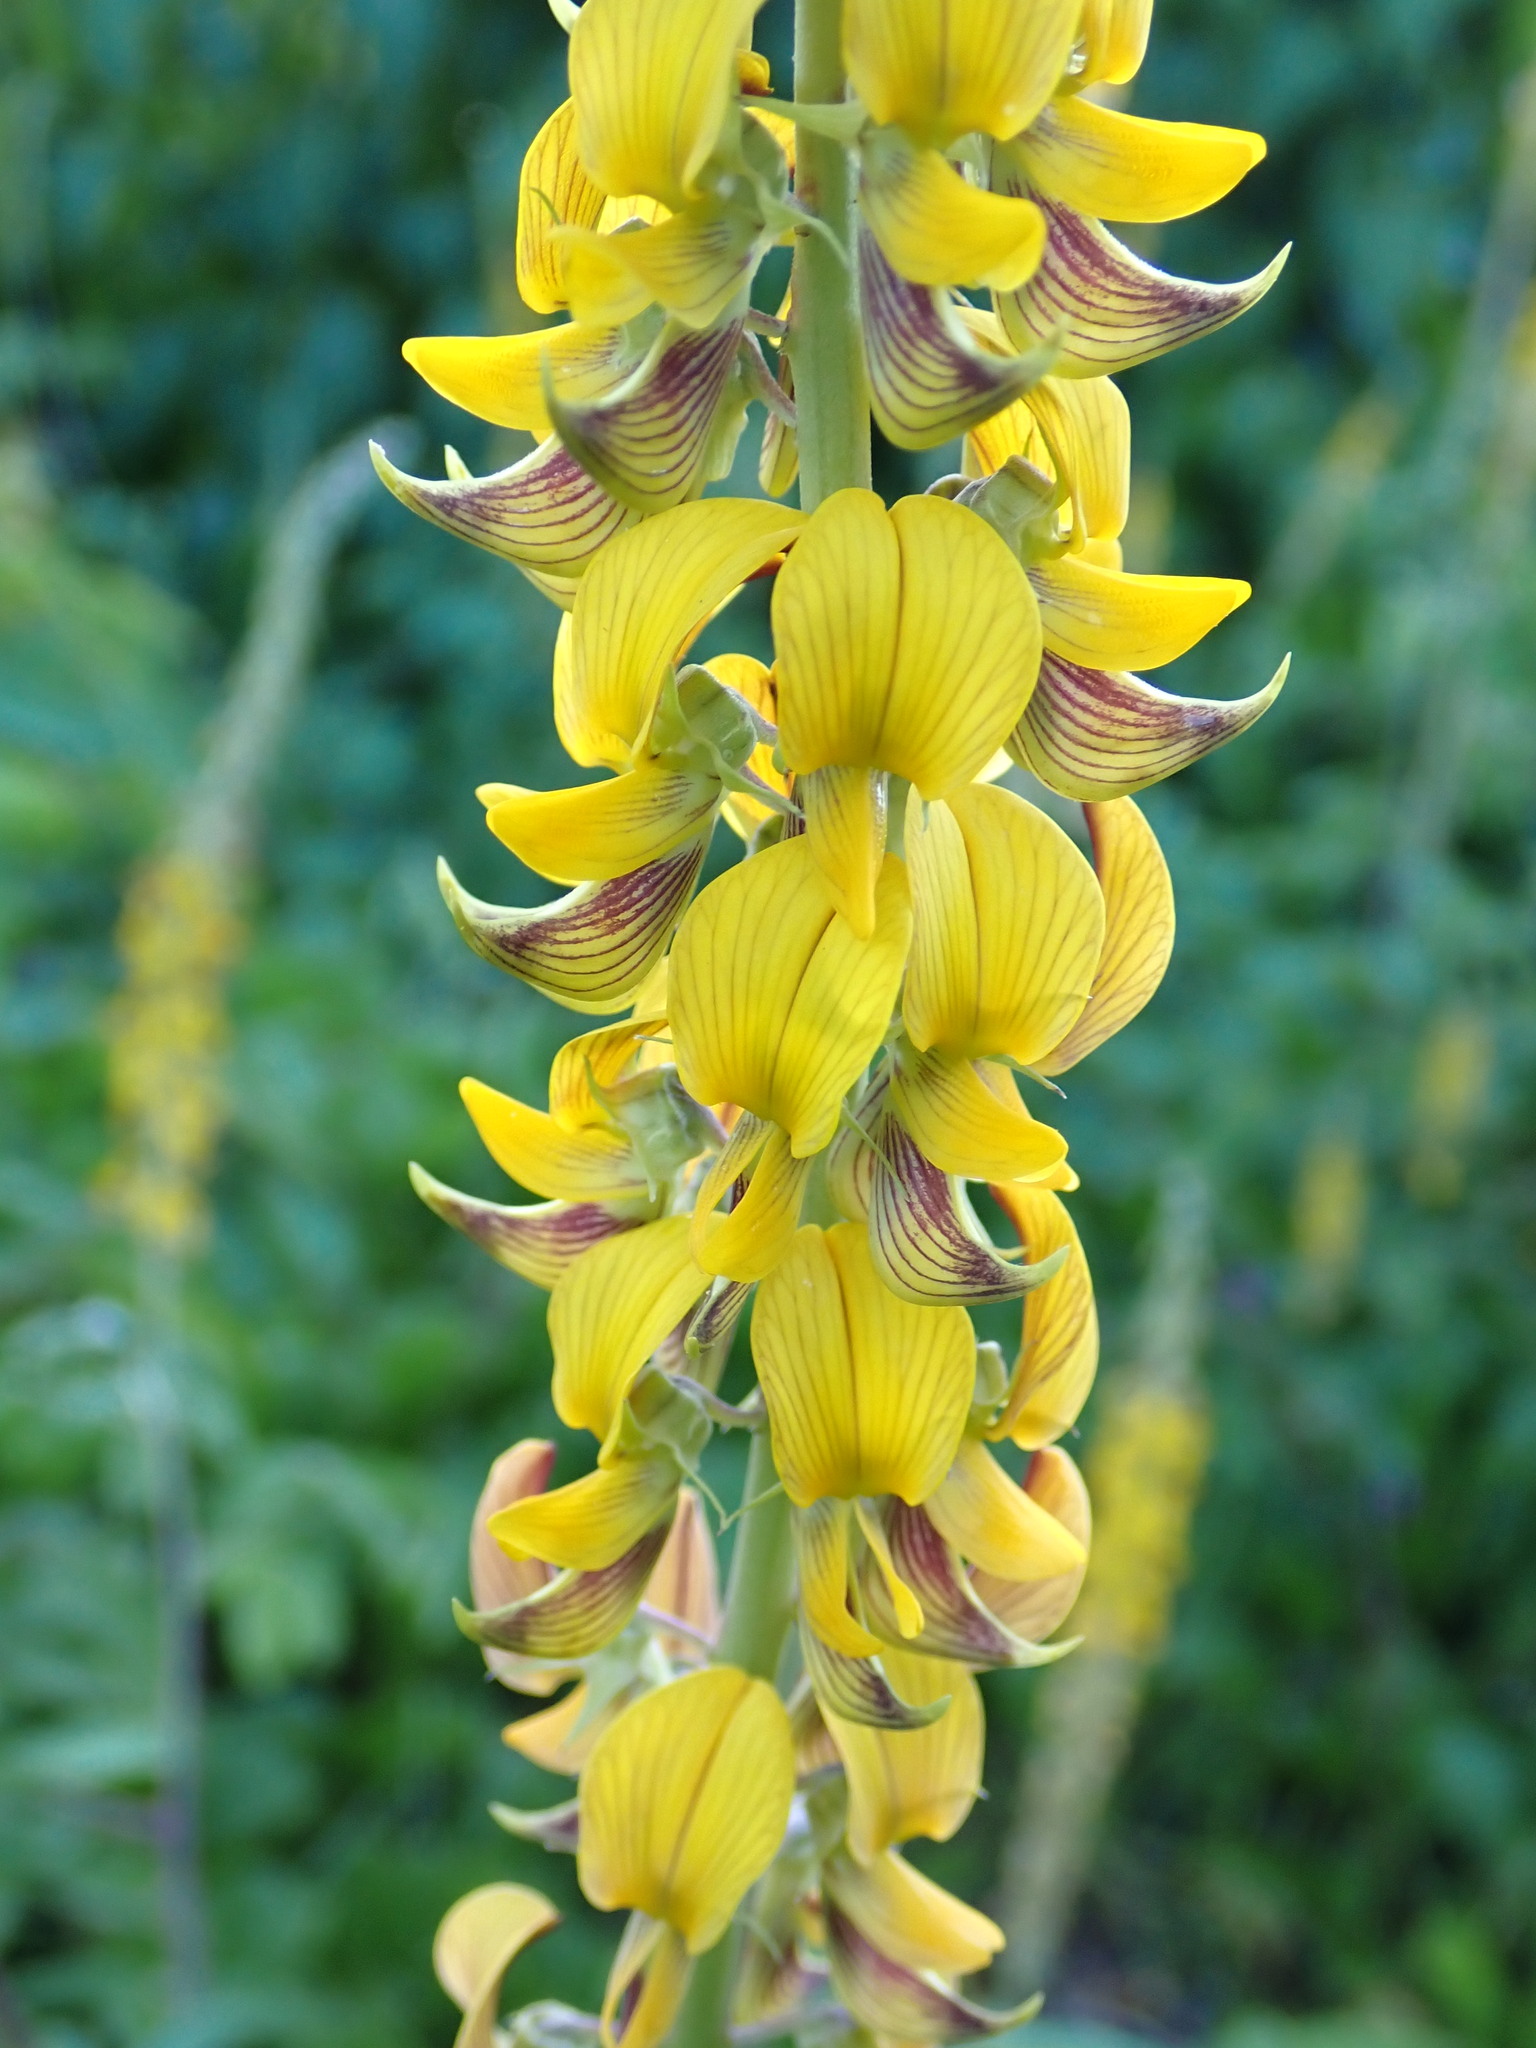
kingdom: Plantae
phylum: Tracheophyta
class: Magnoliopsida
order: Fabales
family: Fabaceae
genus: Crotalaria
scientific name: Crotalaria pallida
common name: Smooth rattlebox
